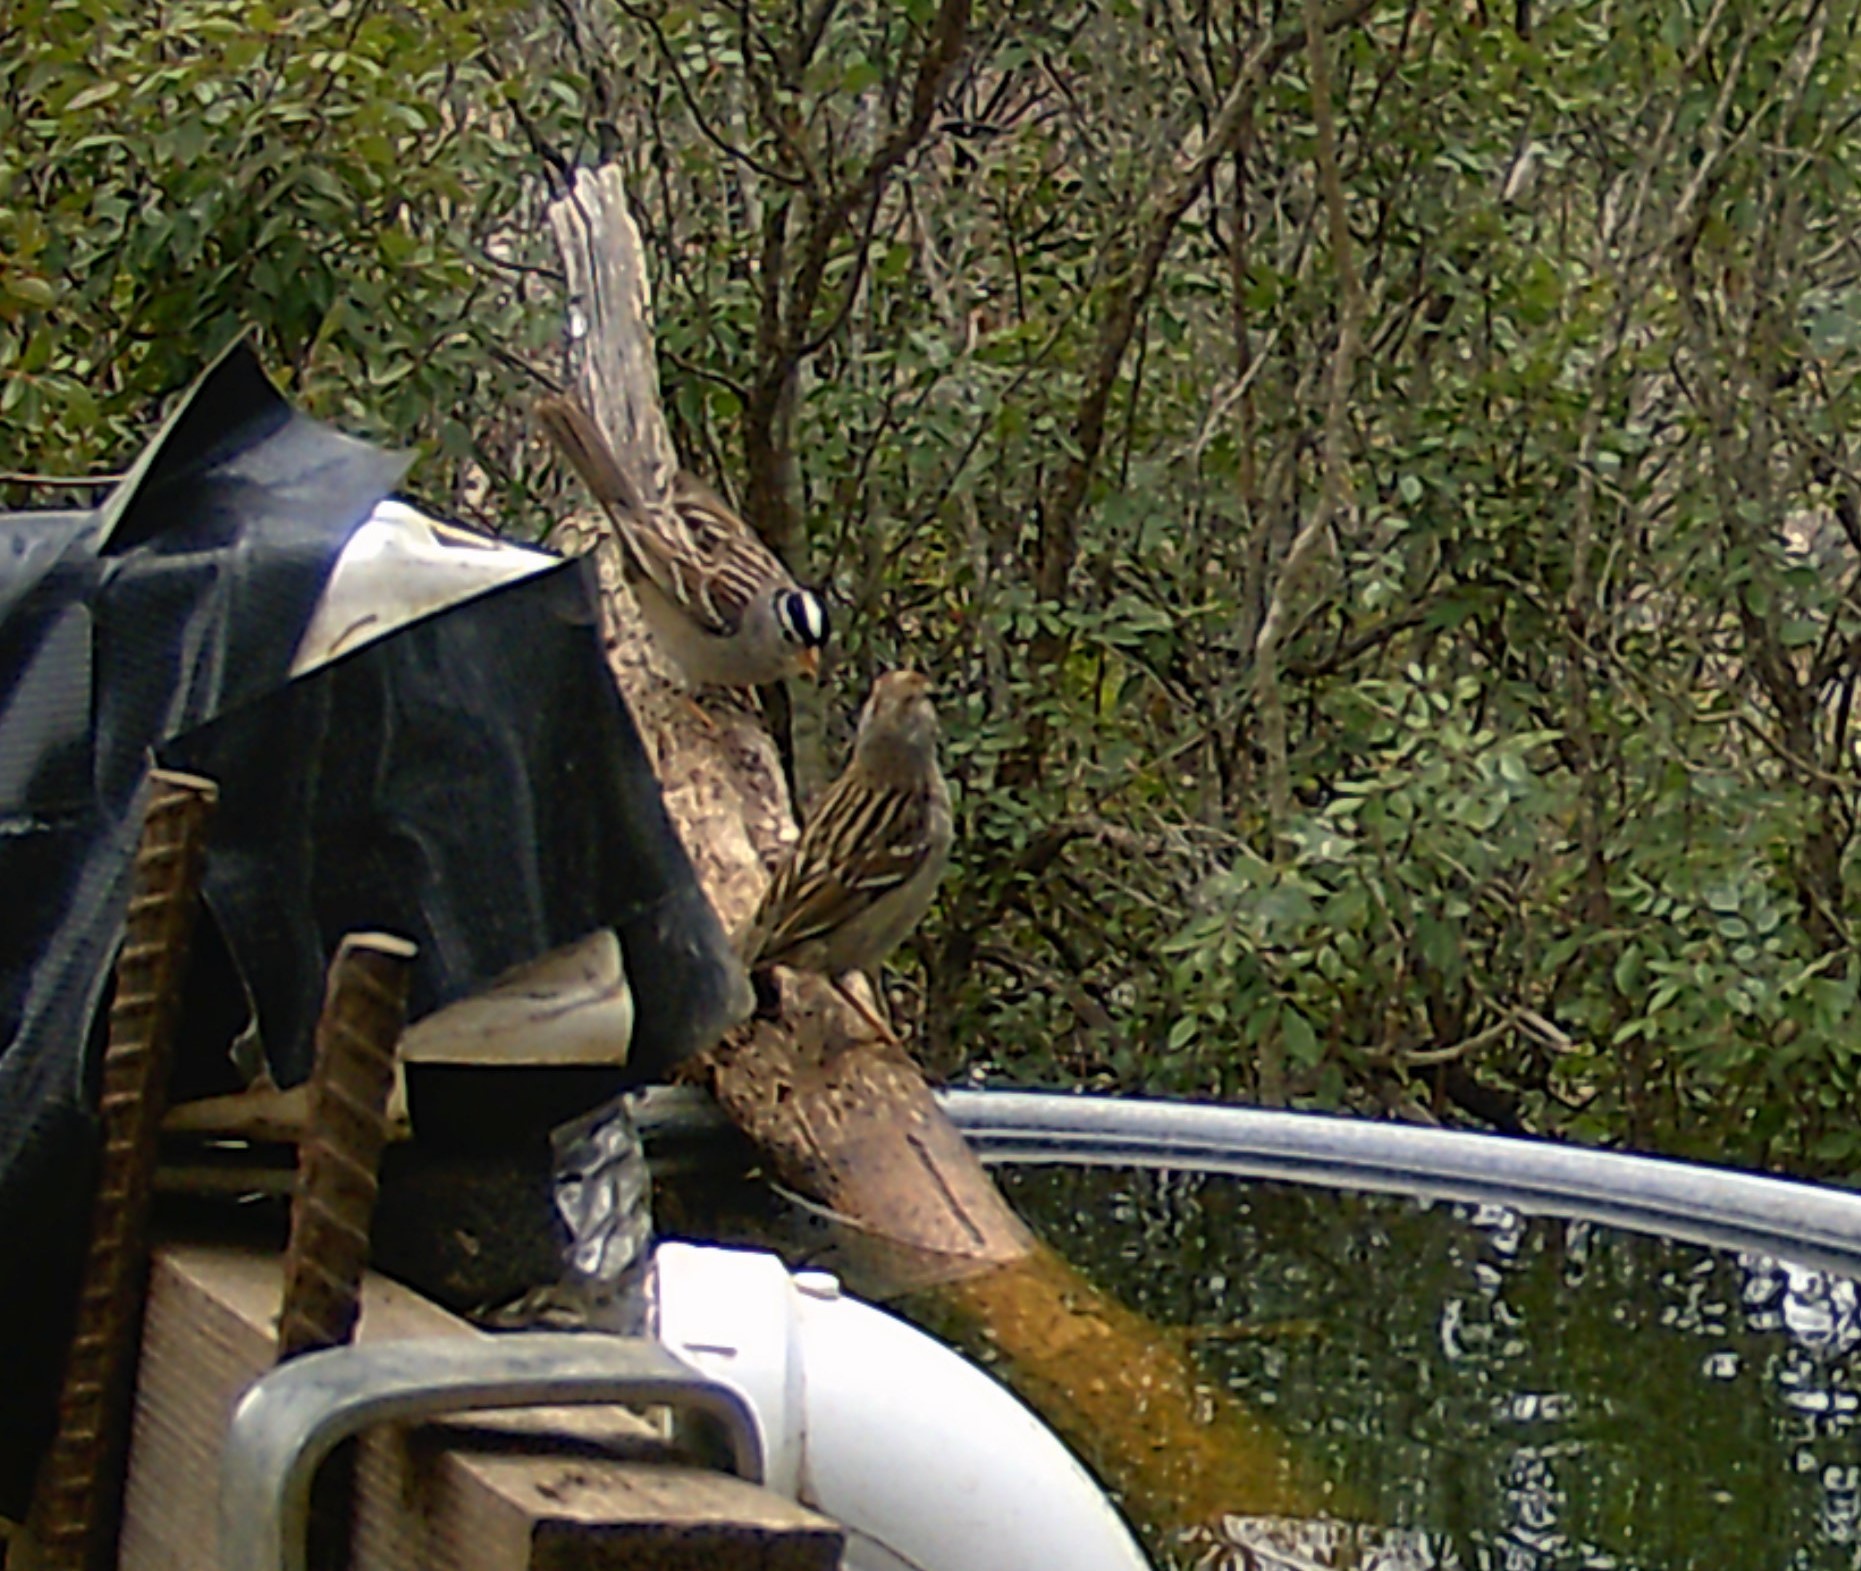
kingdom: Animalia
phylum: Chordata
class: Aves
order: Passeriformes
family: Passerellidae
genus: Zonotrichia
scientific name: Zonotrichia leucophrys
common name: White-crowned sparrow
